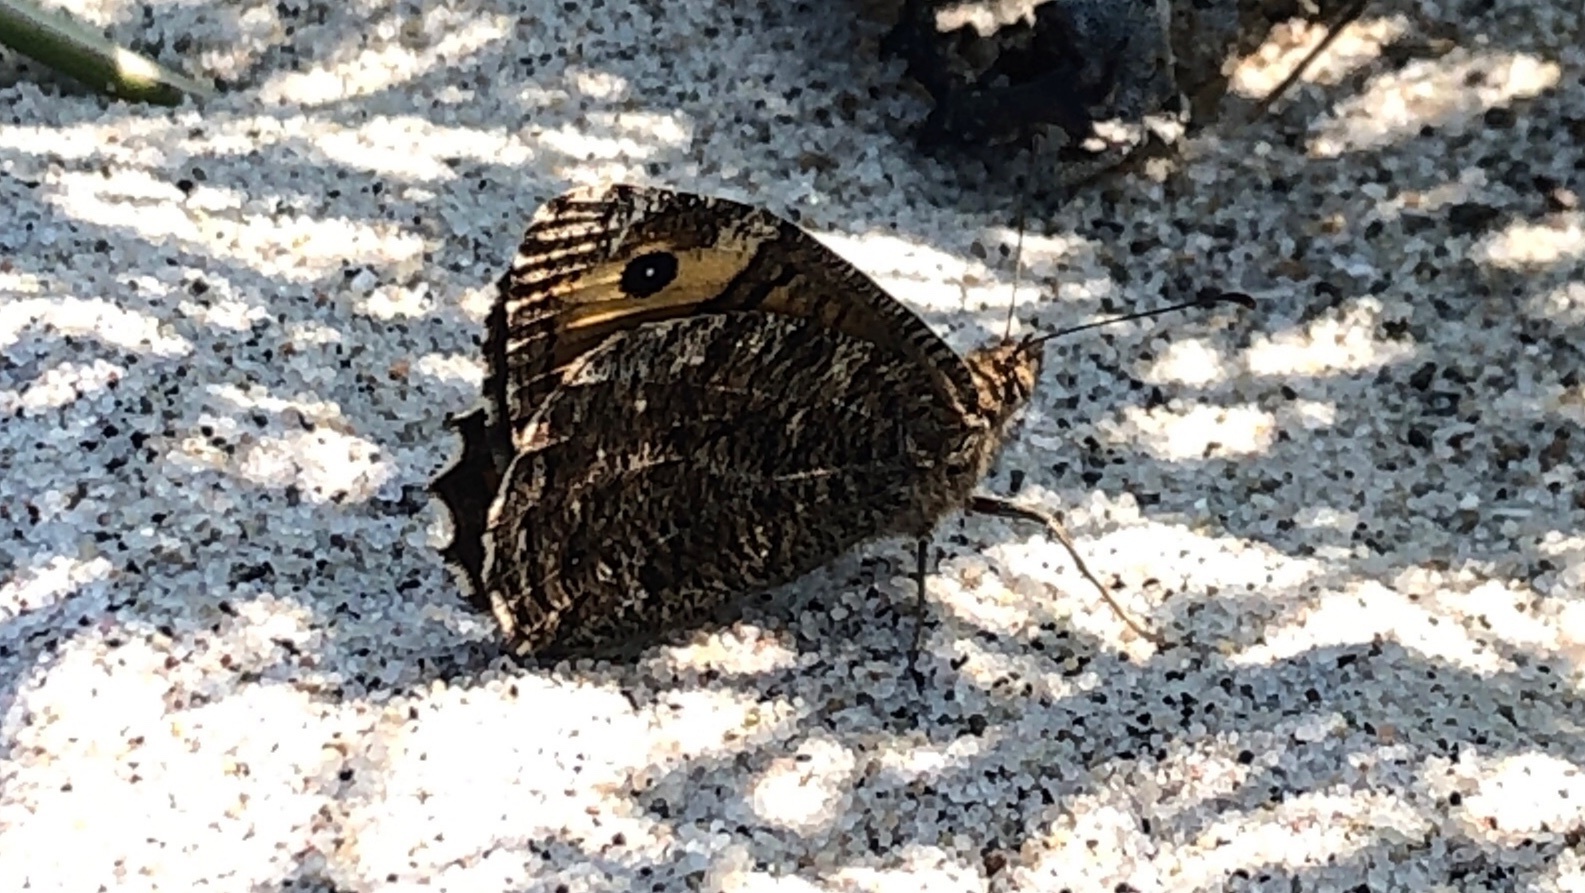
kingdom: Animalia
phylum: Arthropoda
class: Insecta
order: Lepidoptera
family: Nymphalidae
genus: Hipparchia
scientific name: Hipparchia semele
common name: Grayling
